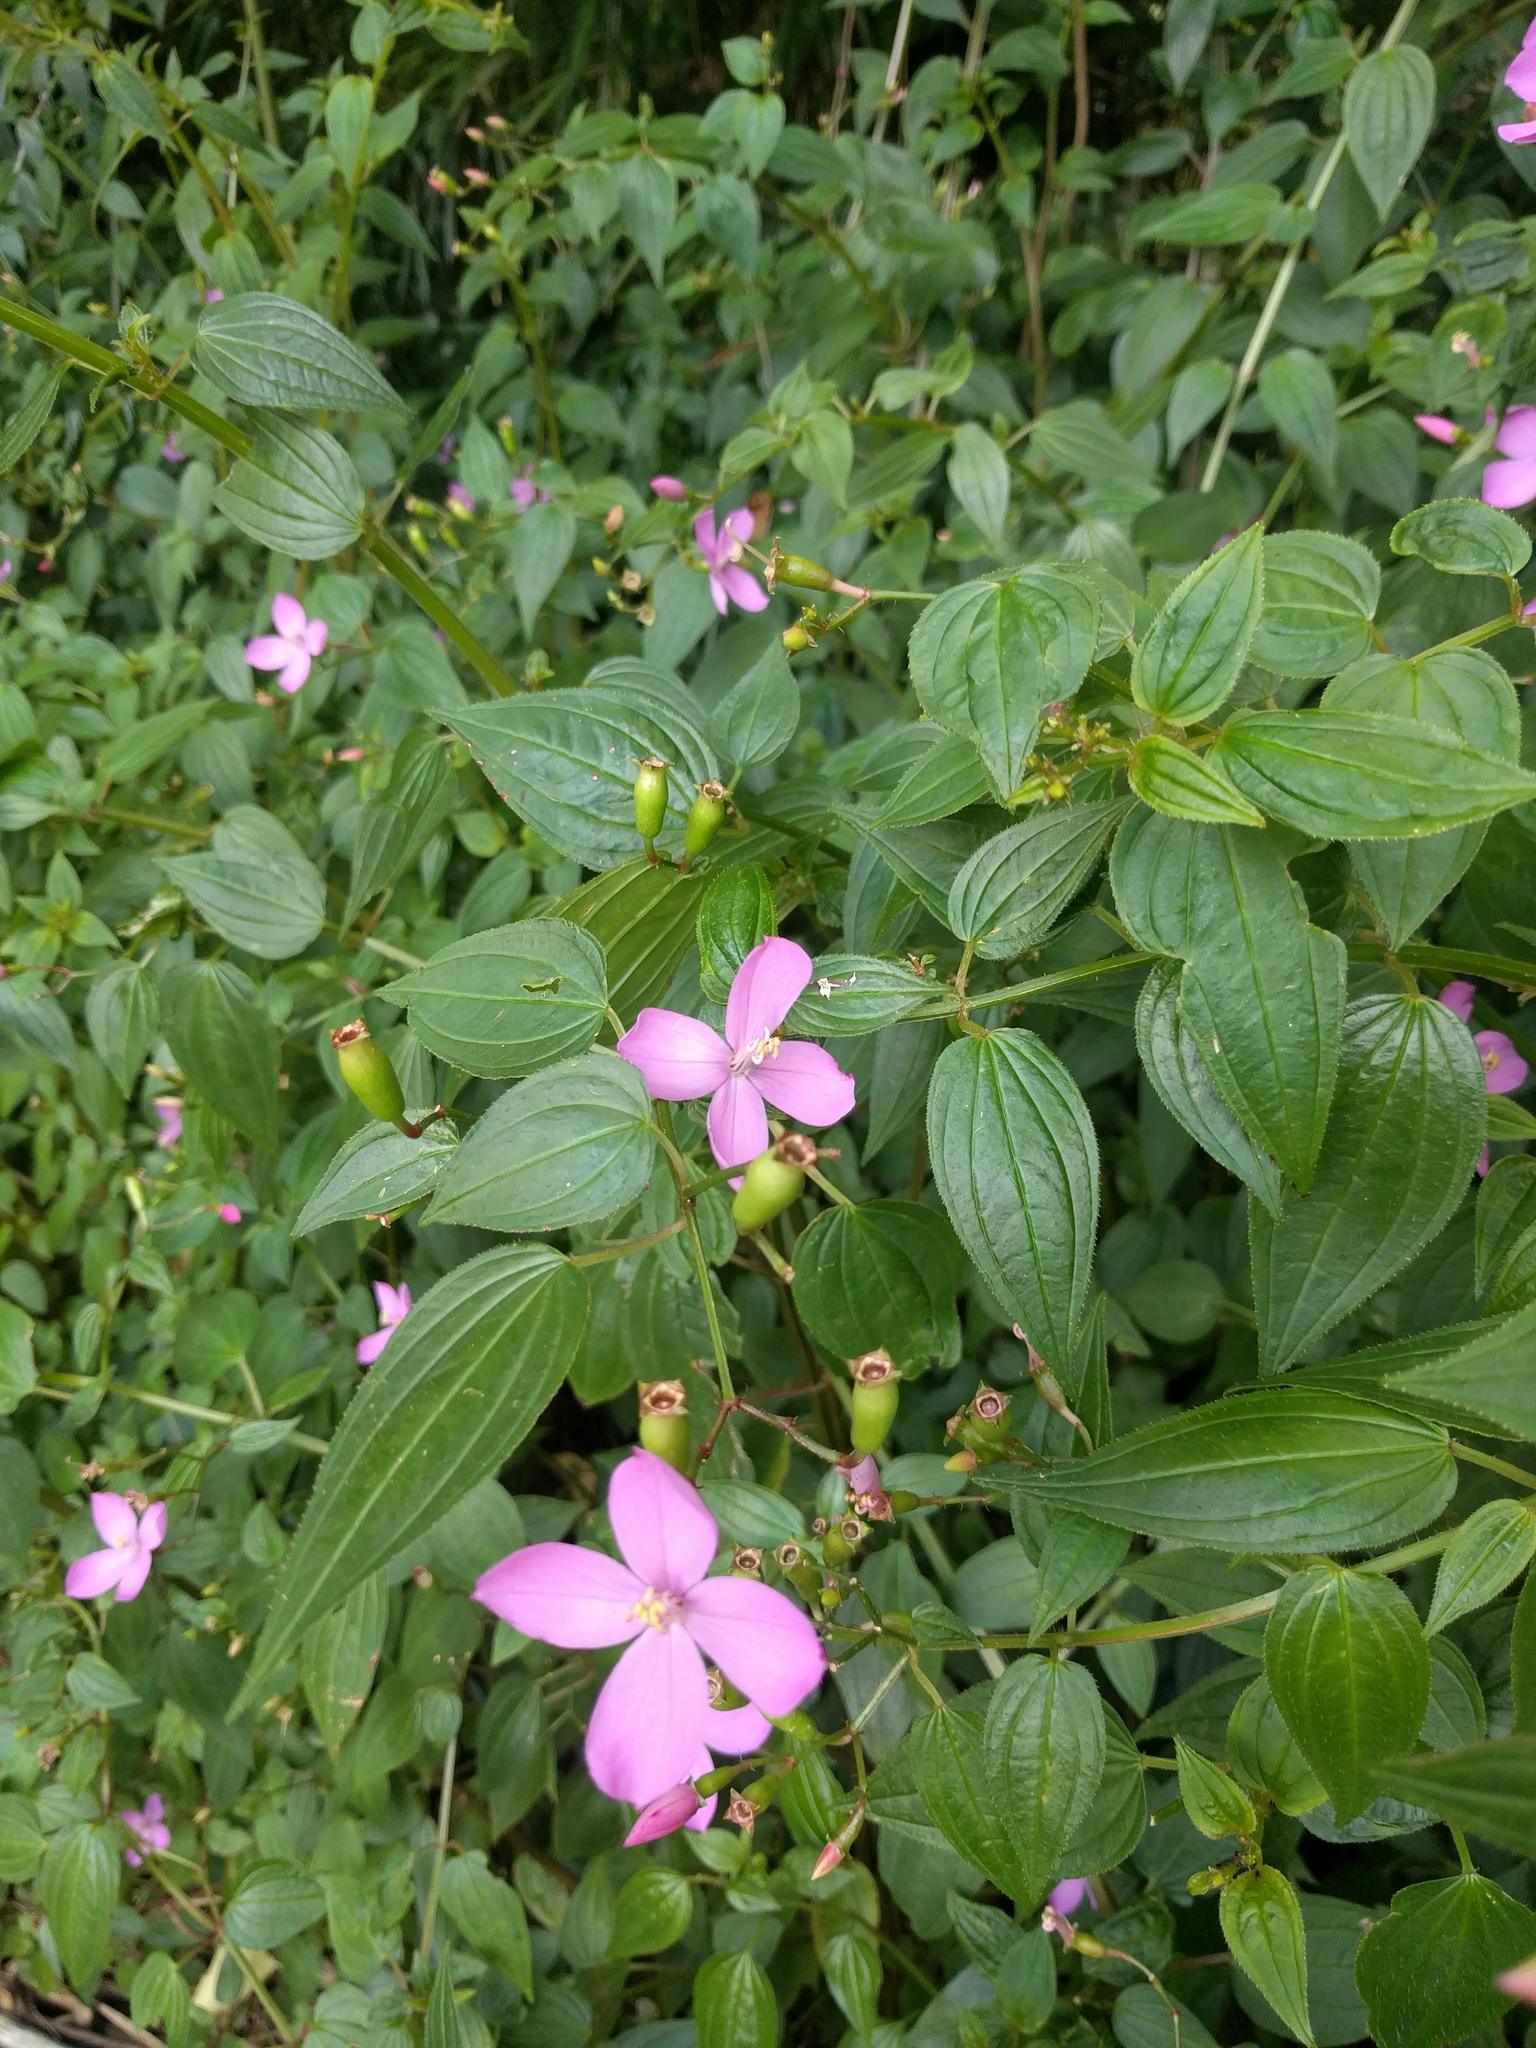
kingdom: Plantae
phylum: Tracheophyta
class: Magnoliopsida
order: Myrtales
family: Melastomataceae
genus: Arthrostemma
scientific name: Arthrostemma ciliatum
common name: Everblooming eavender
